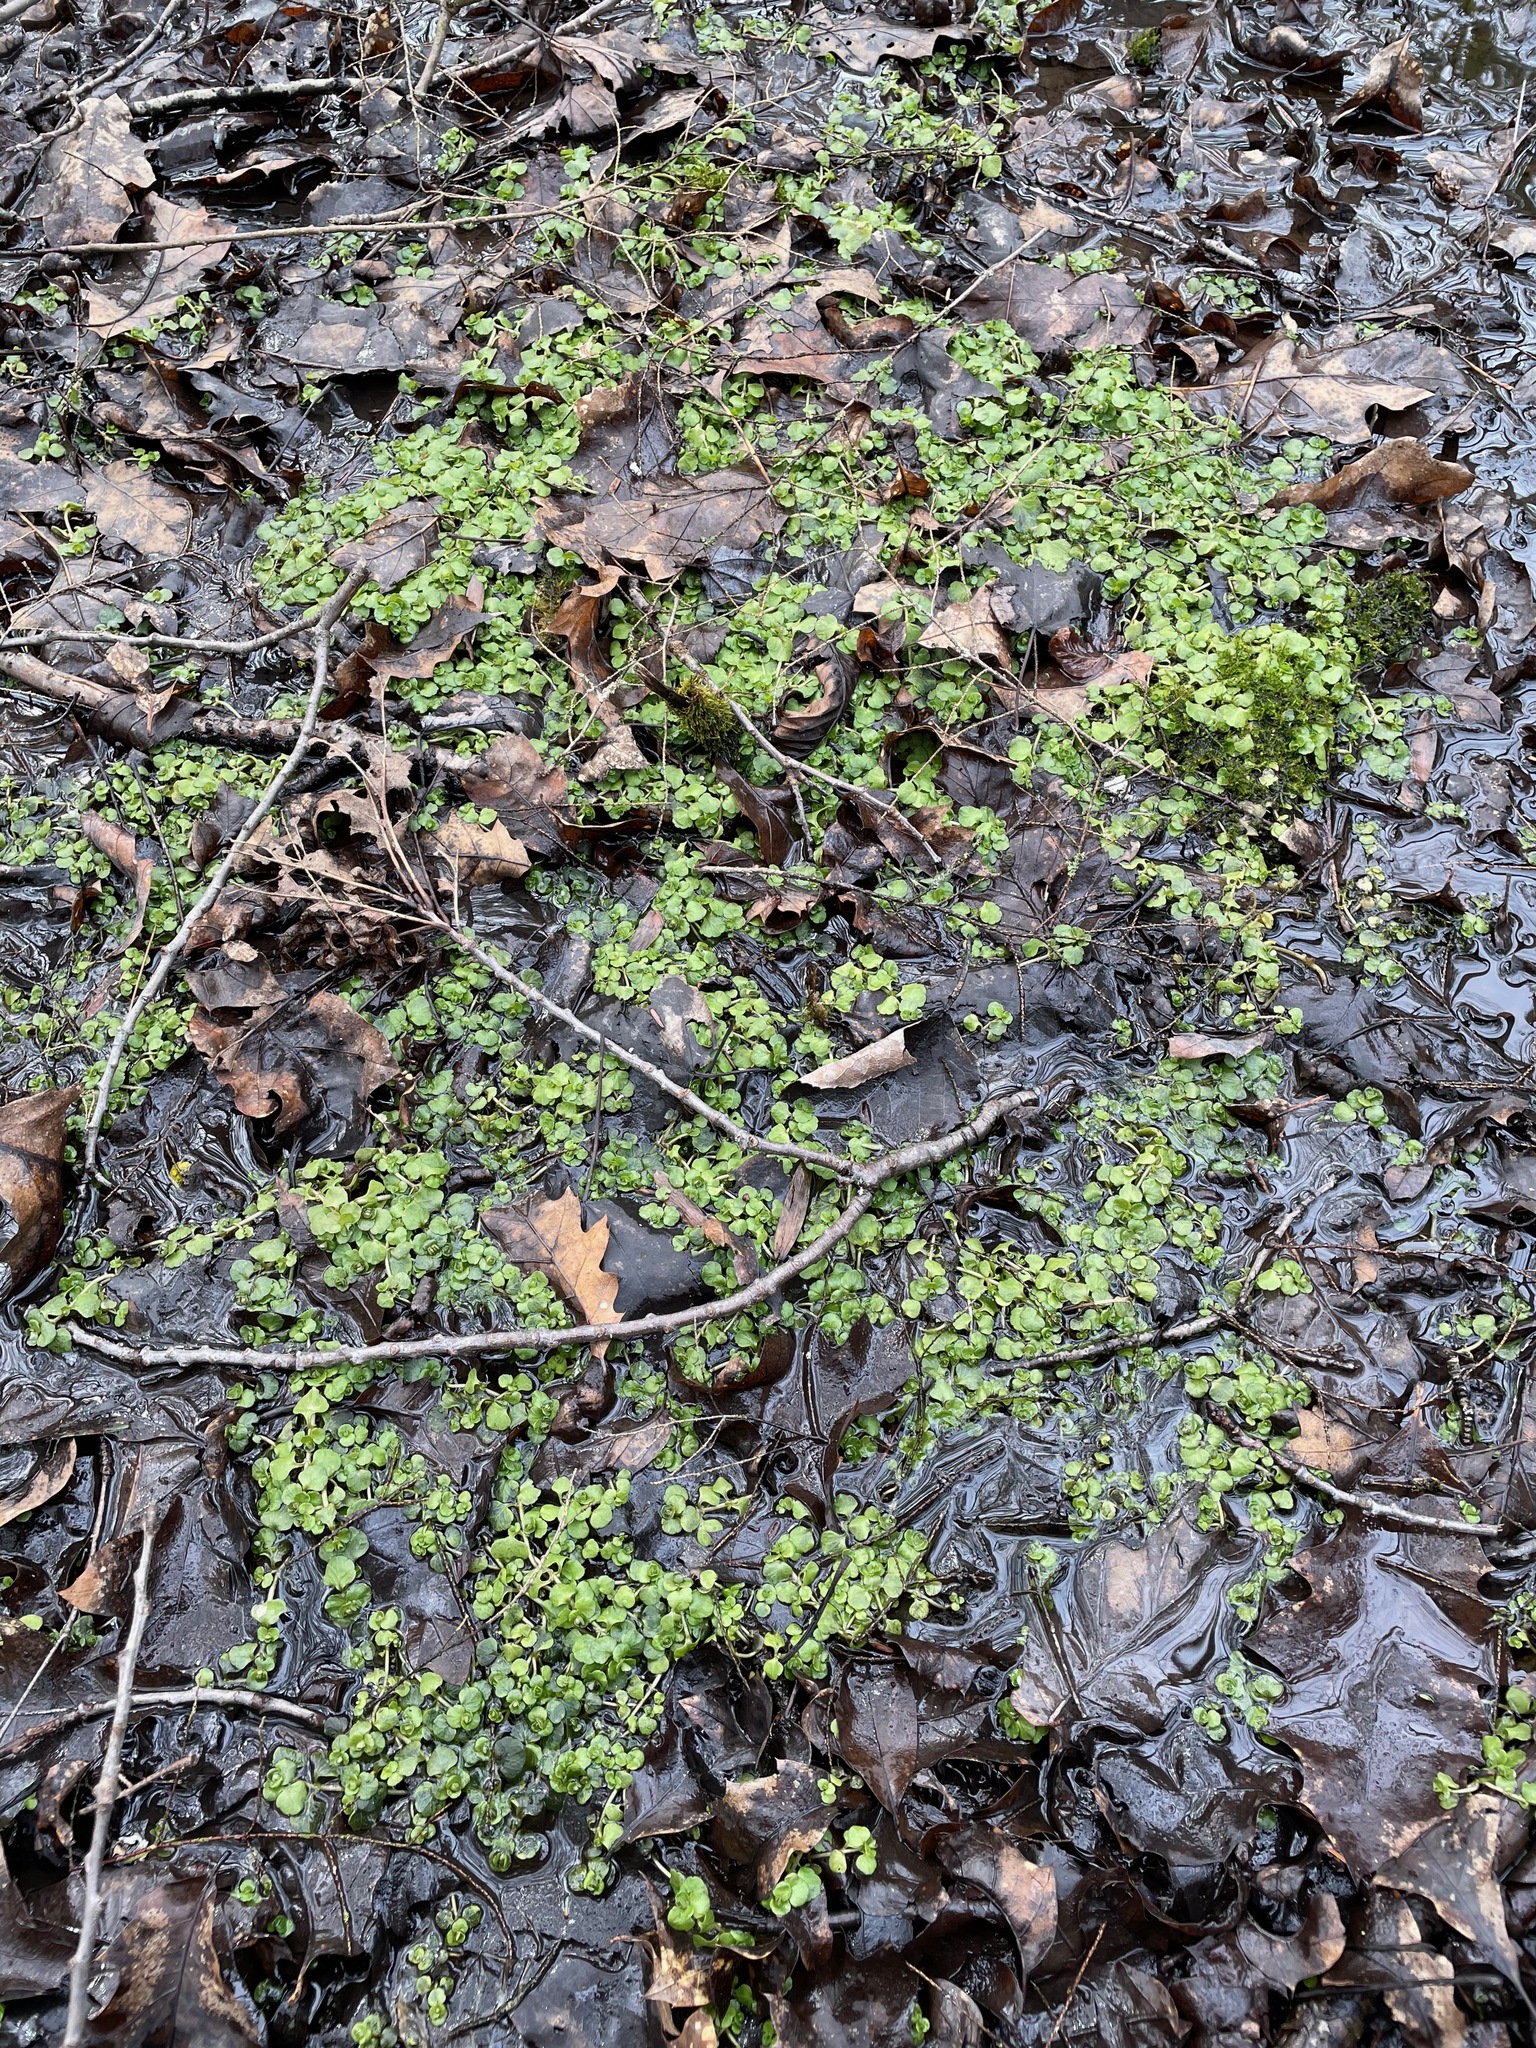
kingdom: Plantae
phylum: Tracheophyta
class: Magnoliopsida
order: Saxifragales
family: Saxifragaceae
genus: Chrysosplenium
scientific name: Chrysosplenium americanum
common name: American golden-saxifrage
